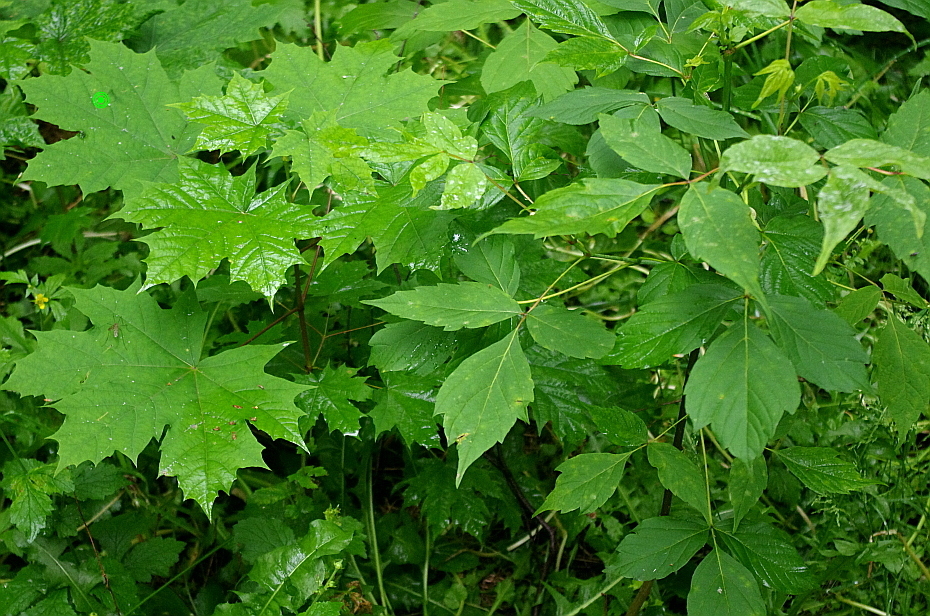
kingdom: Plantae
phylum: Tracheophyta
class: Magnoliopsida
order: Sapindales
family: Sapindaceae
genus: Acer
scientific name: Acer platanoides
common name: Norway maple
